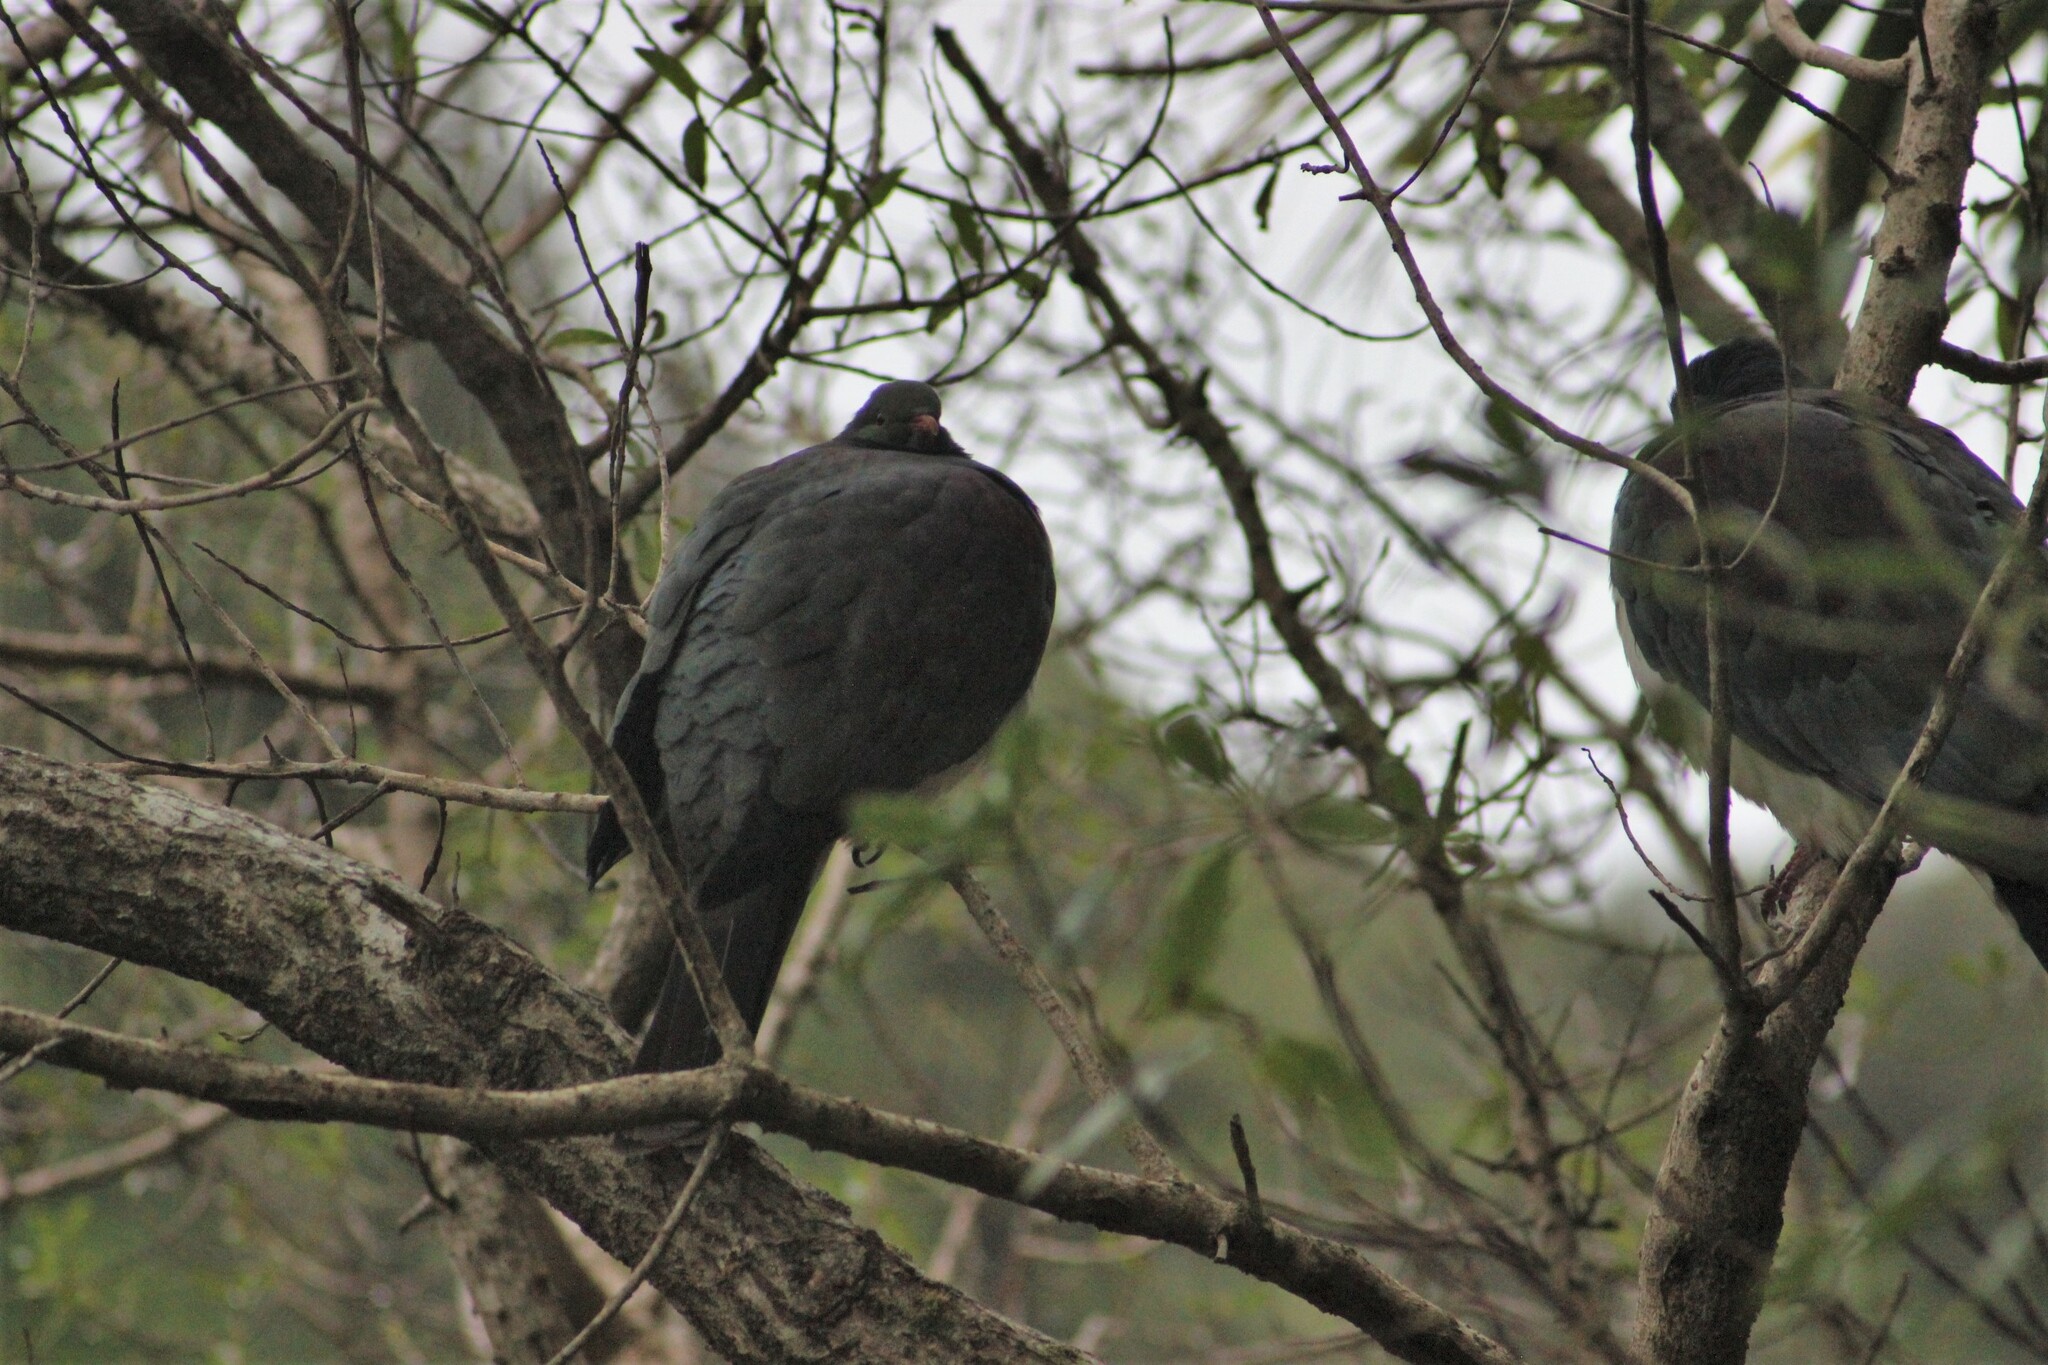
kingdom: Animalia
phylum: Chordata
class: Aves
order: Columbiformes
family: Columbidae
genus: Hemiphaga
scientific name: Hemiphaga novaeseelandiae
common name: New zealand pigeon
